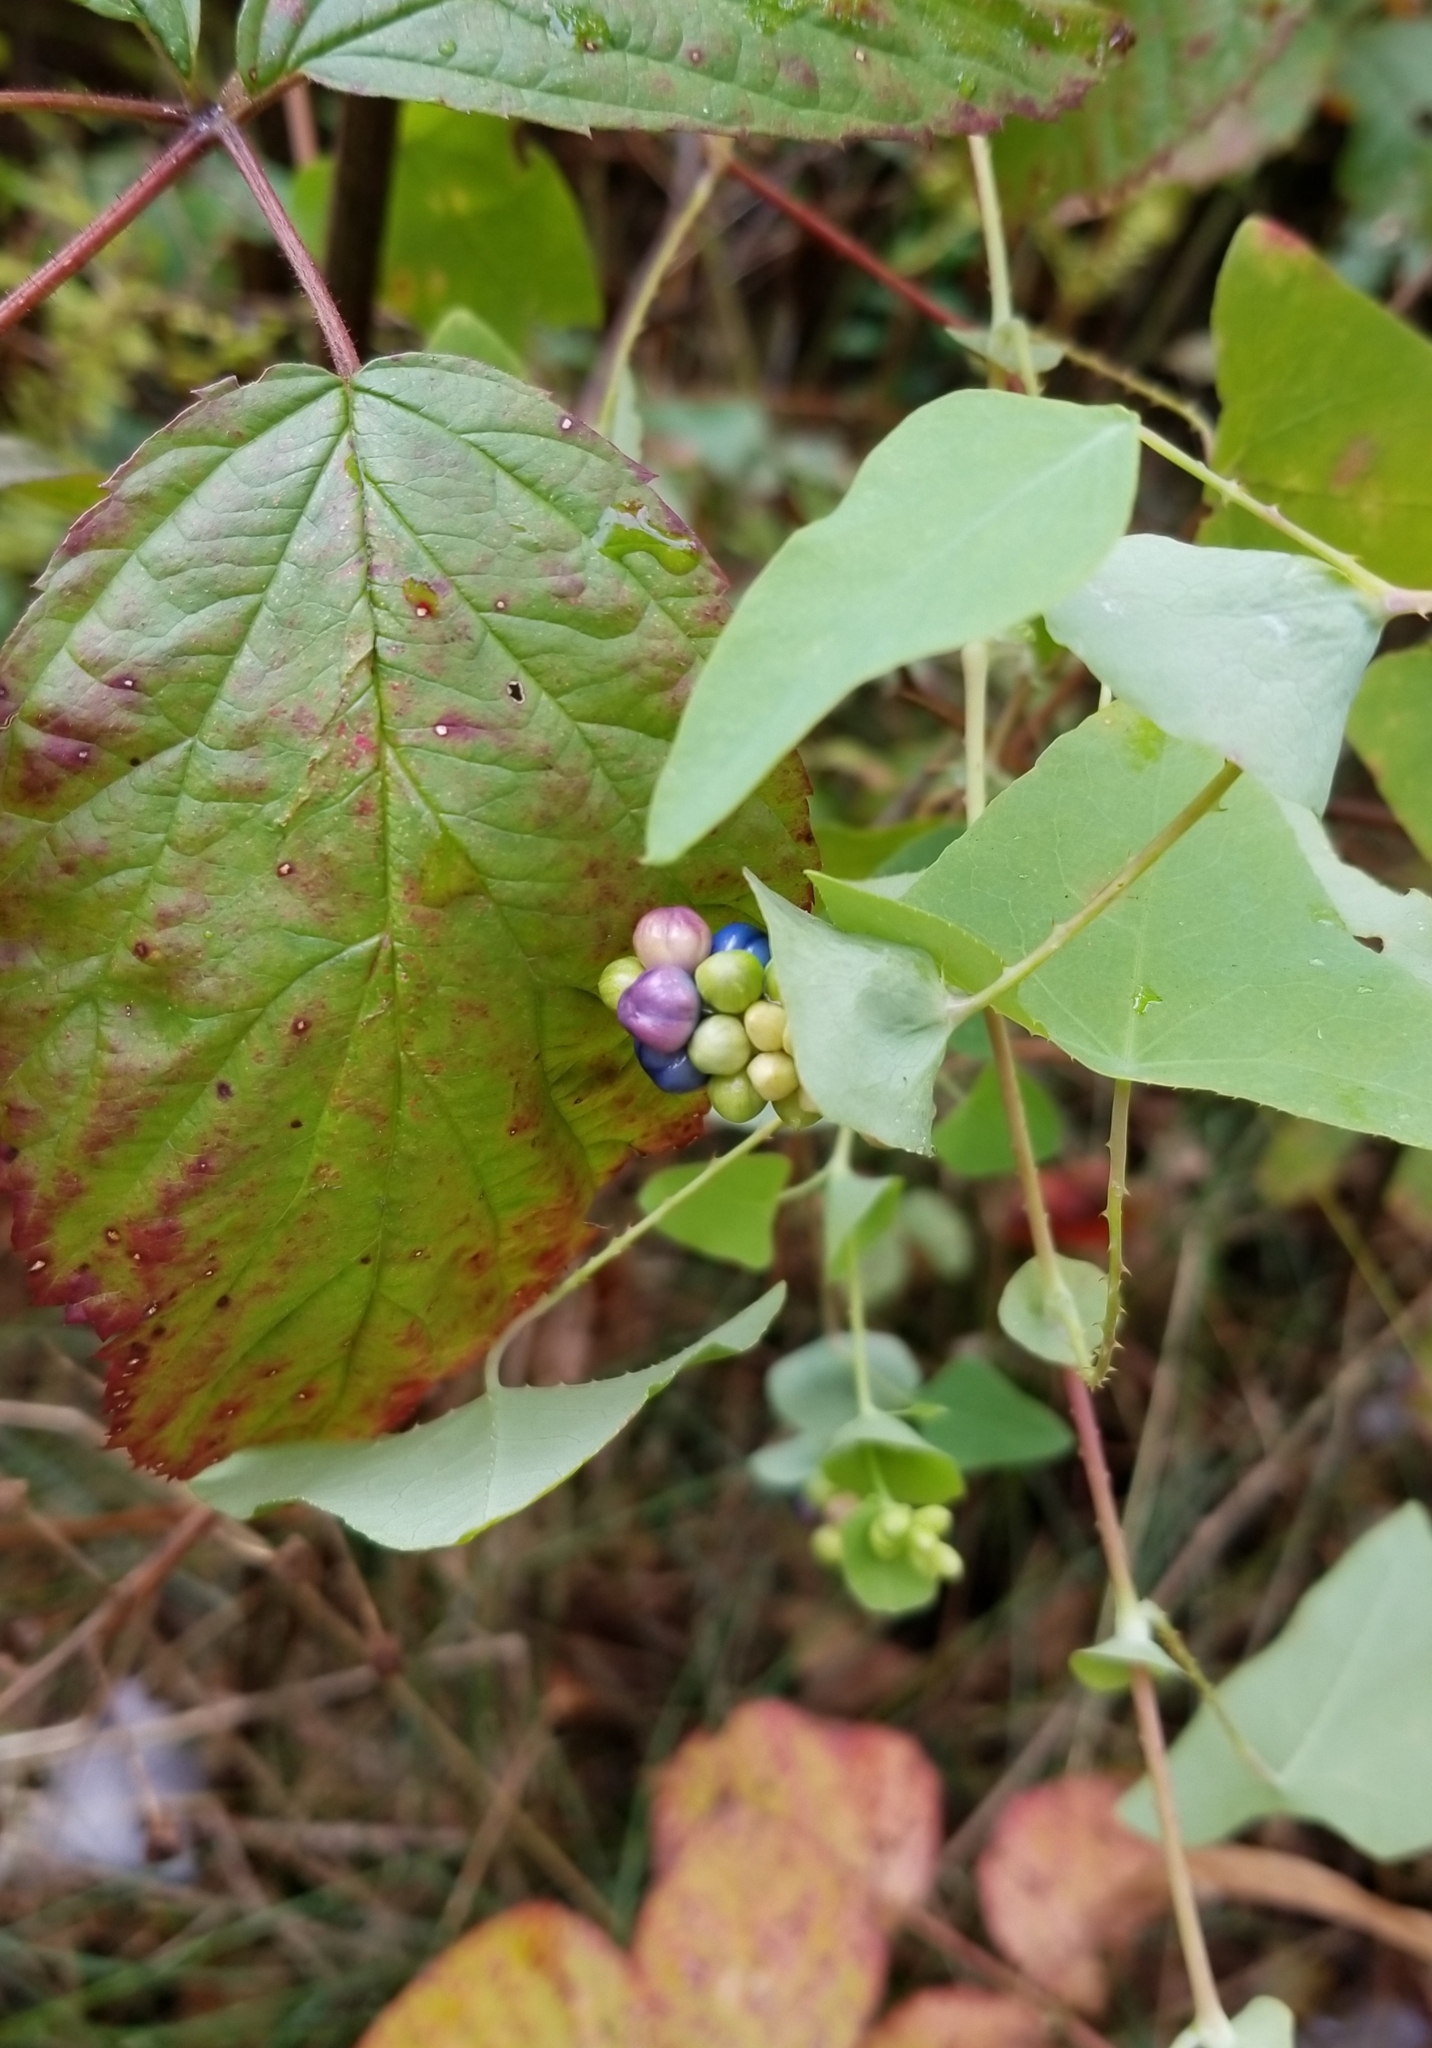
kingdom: Plantae
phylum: Tracheophyta
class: Magnoliopsida
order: Caryophyllales
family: Polygonaceae
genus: Persicaria
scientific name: Persicaria perfoliata
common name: Asiatic tearthumb
